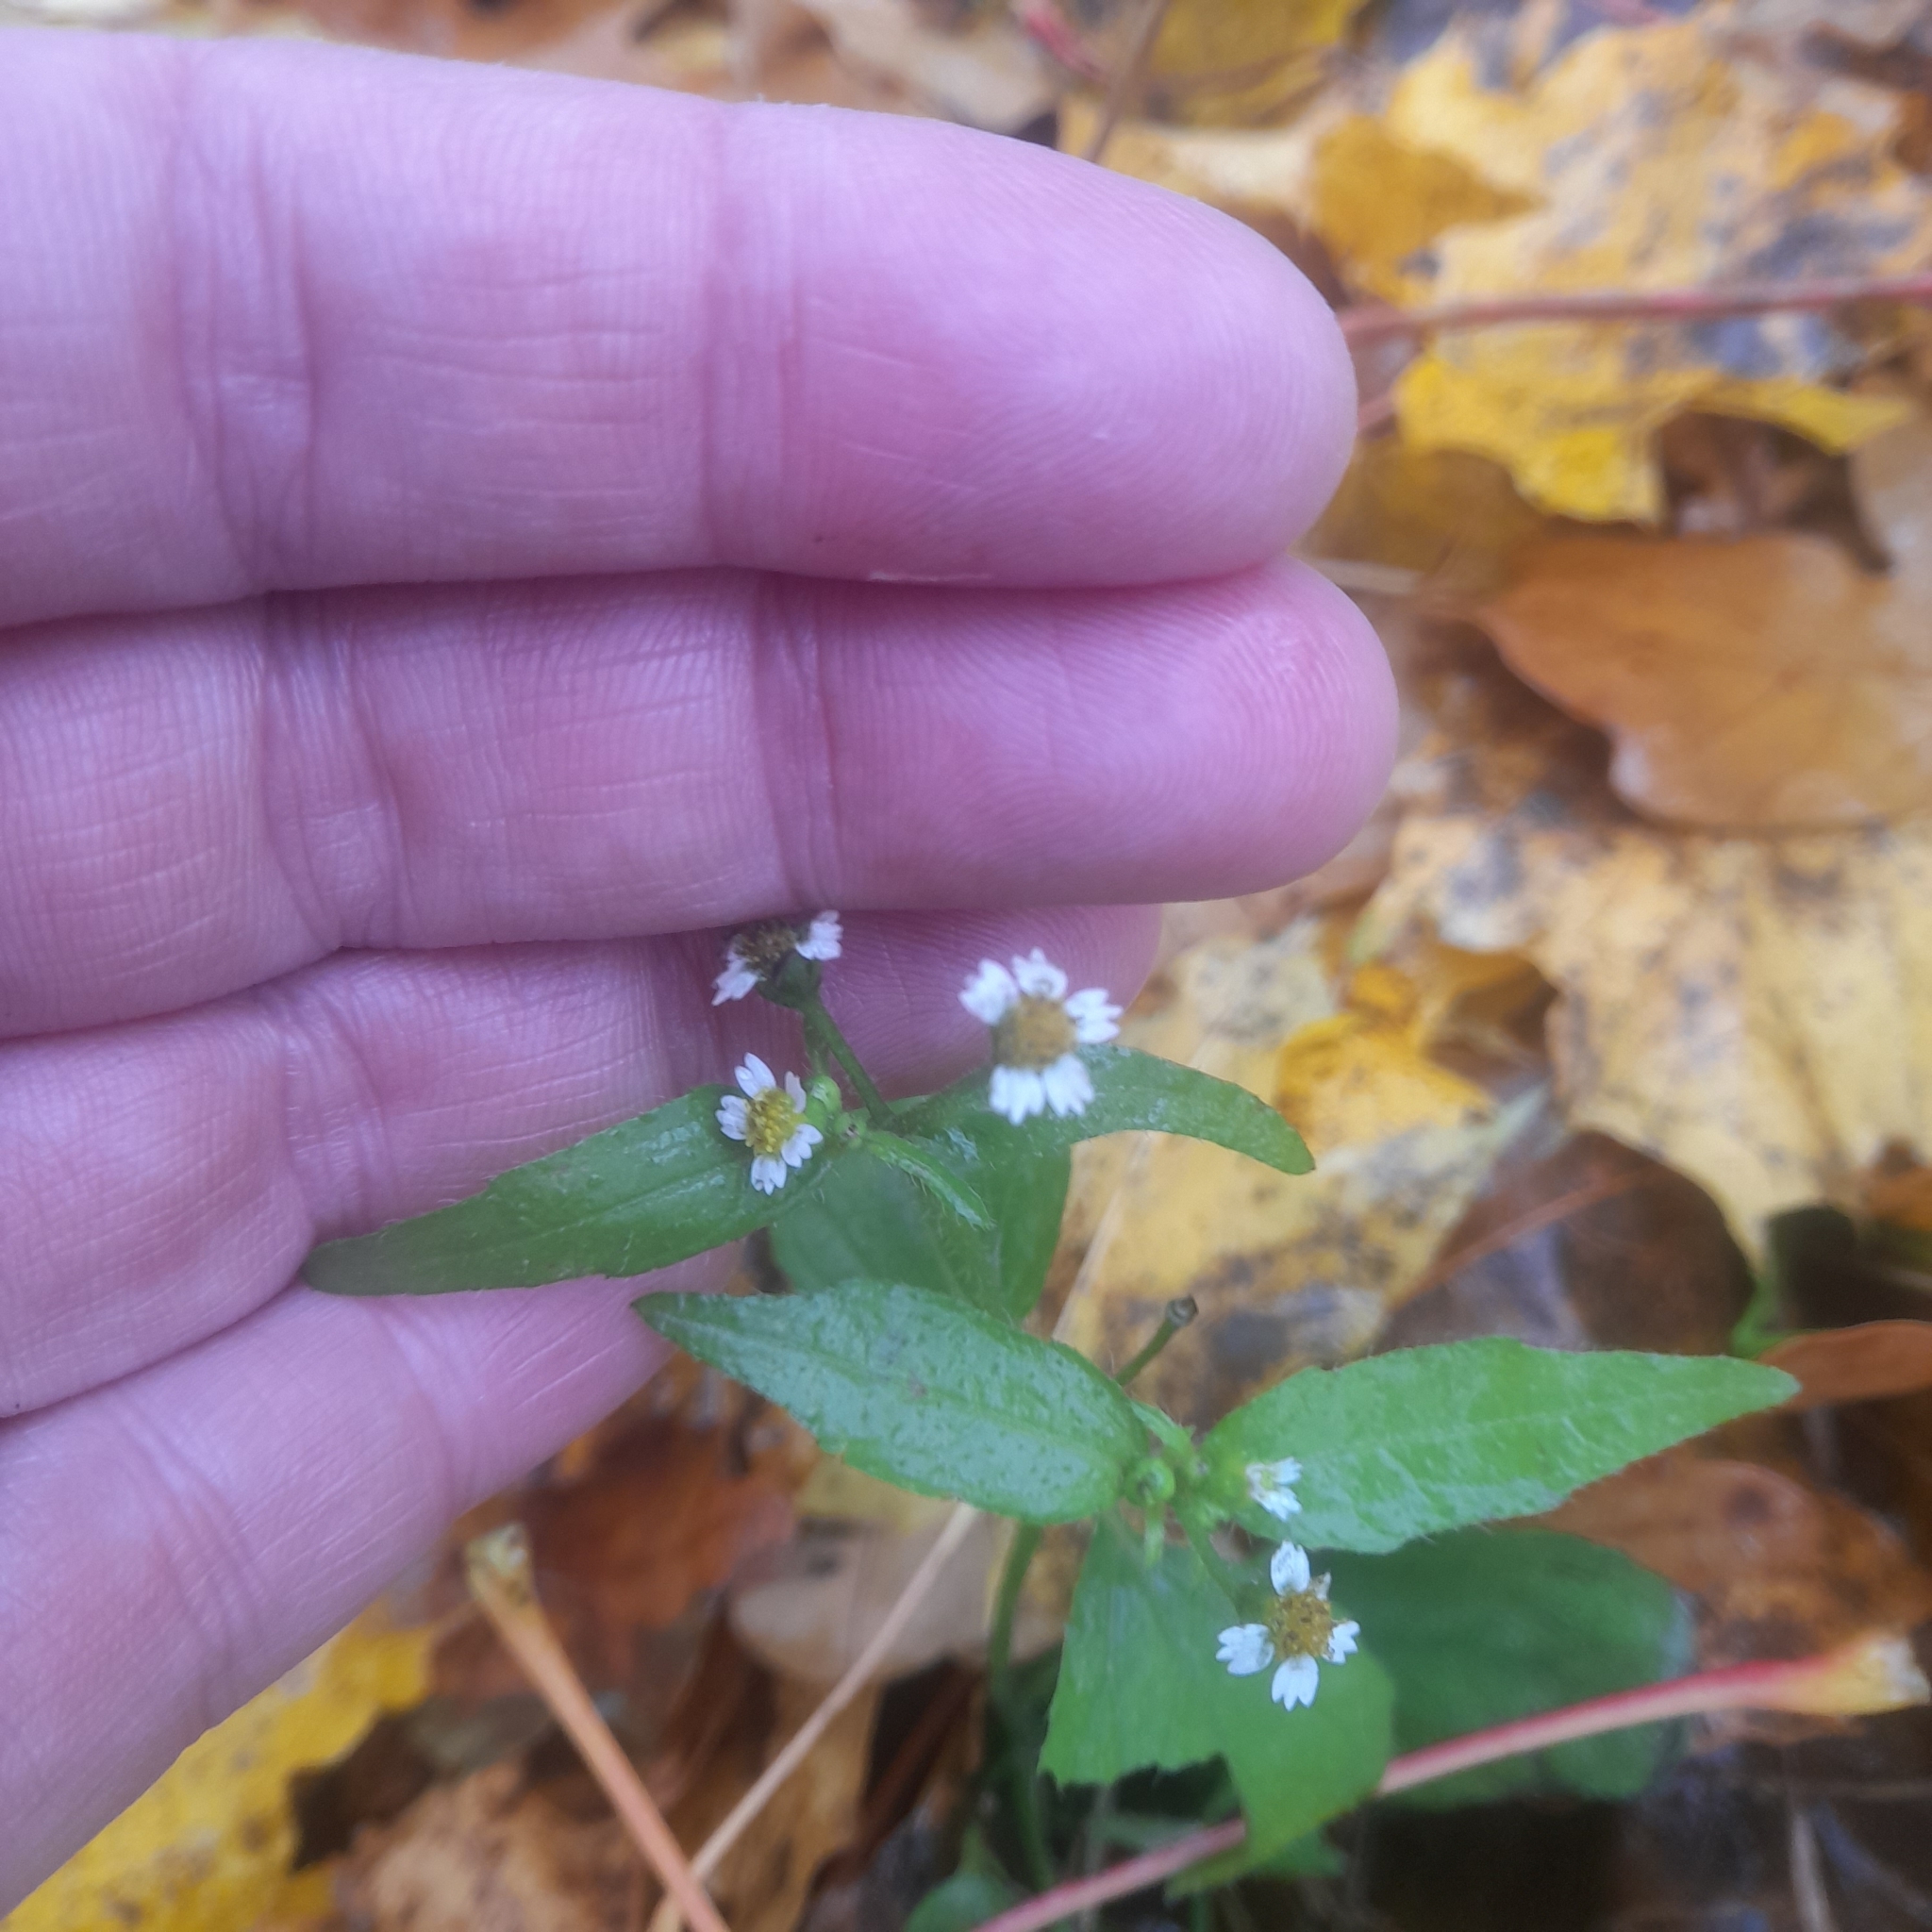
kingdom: Plantae
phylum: Tracheophyta
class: Magnoliopsida
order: Asterales
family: Asteraceae
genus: Galinsoga
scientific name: Galinsoga quadriradiata
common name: Shaggy soldier
